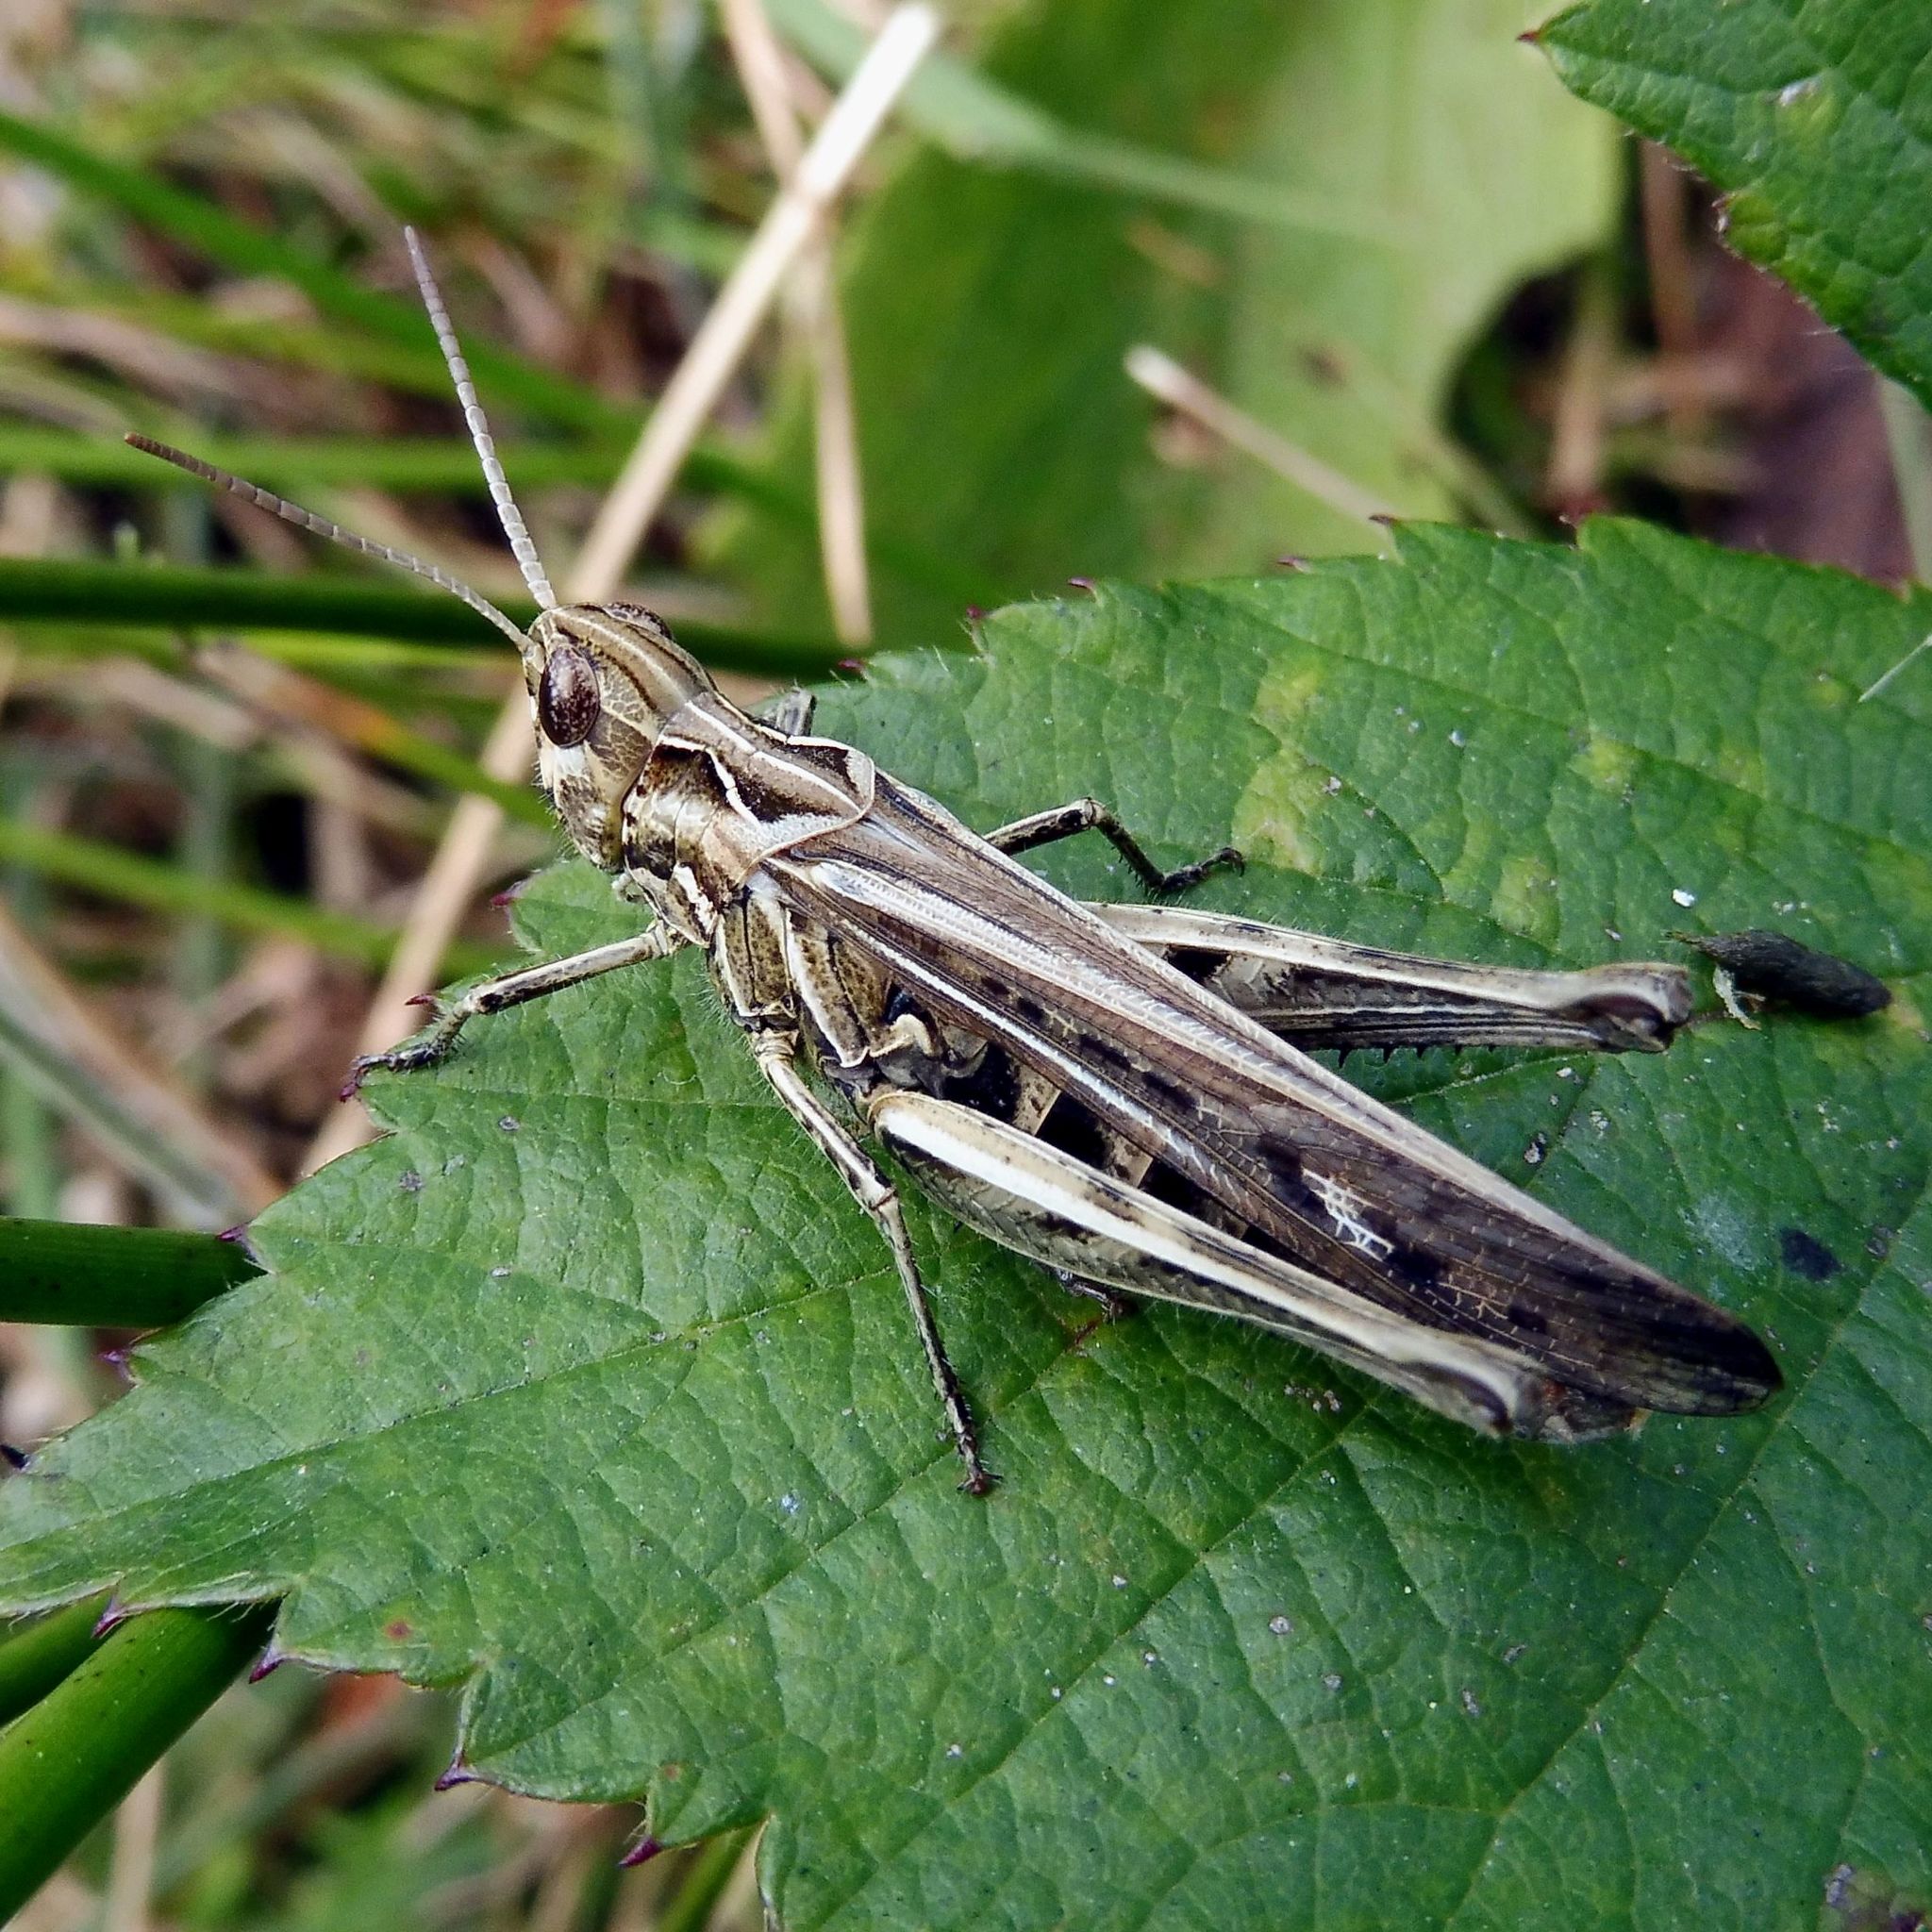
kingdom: Animalia
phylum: Arthropoda
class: Insecta
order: Orthoptera
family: Acrididae
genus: Chorthippus
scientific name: Chorthippus brunneus
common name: Field grasshopper
